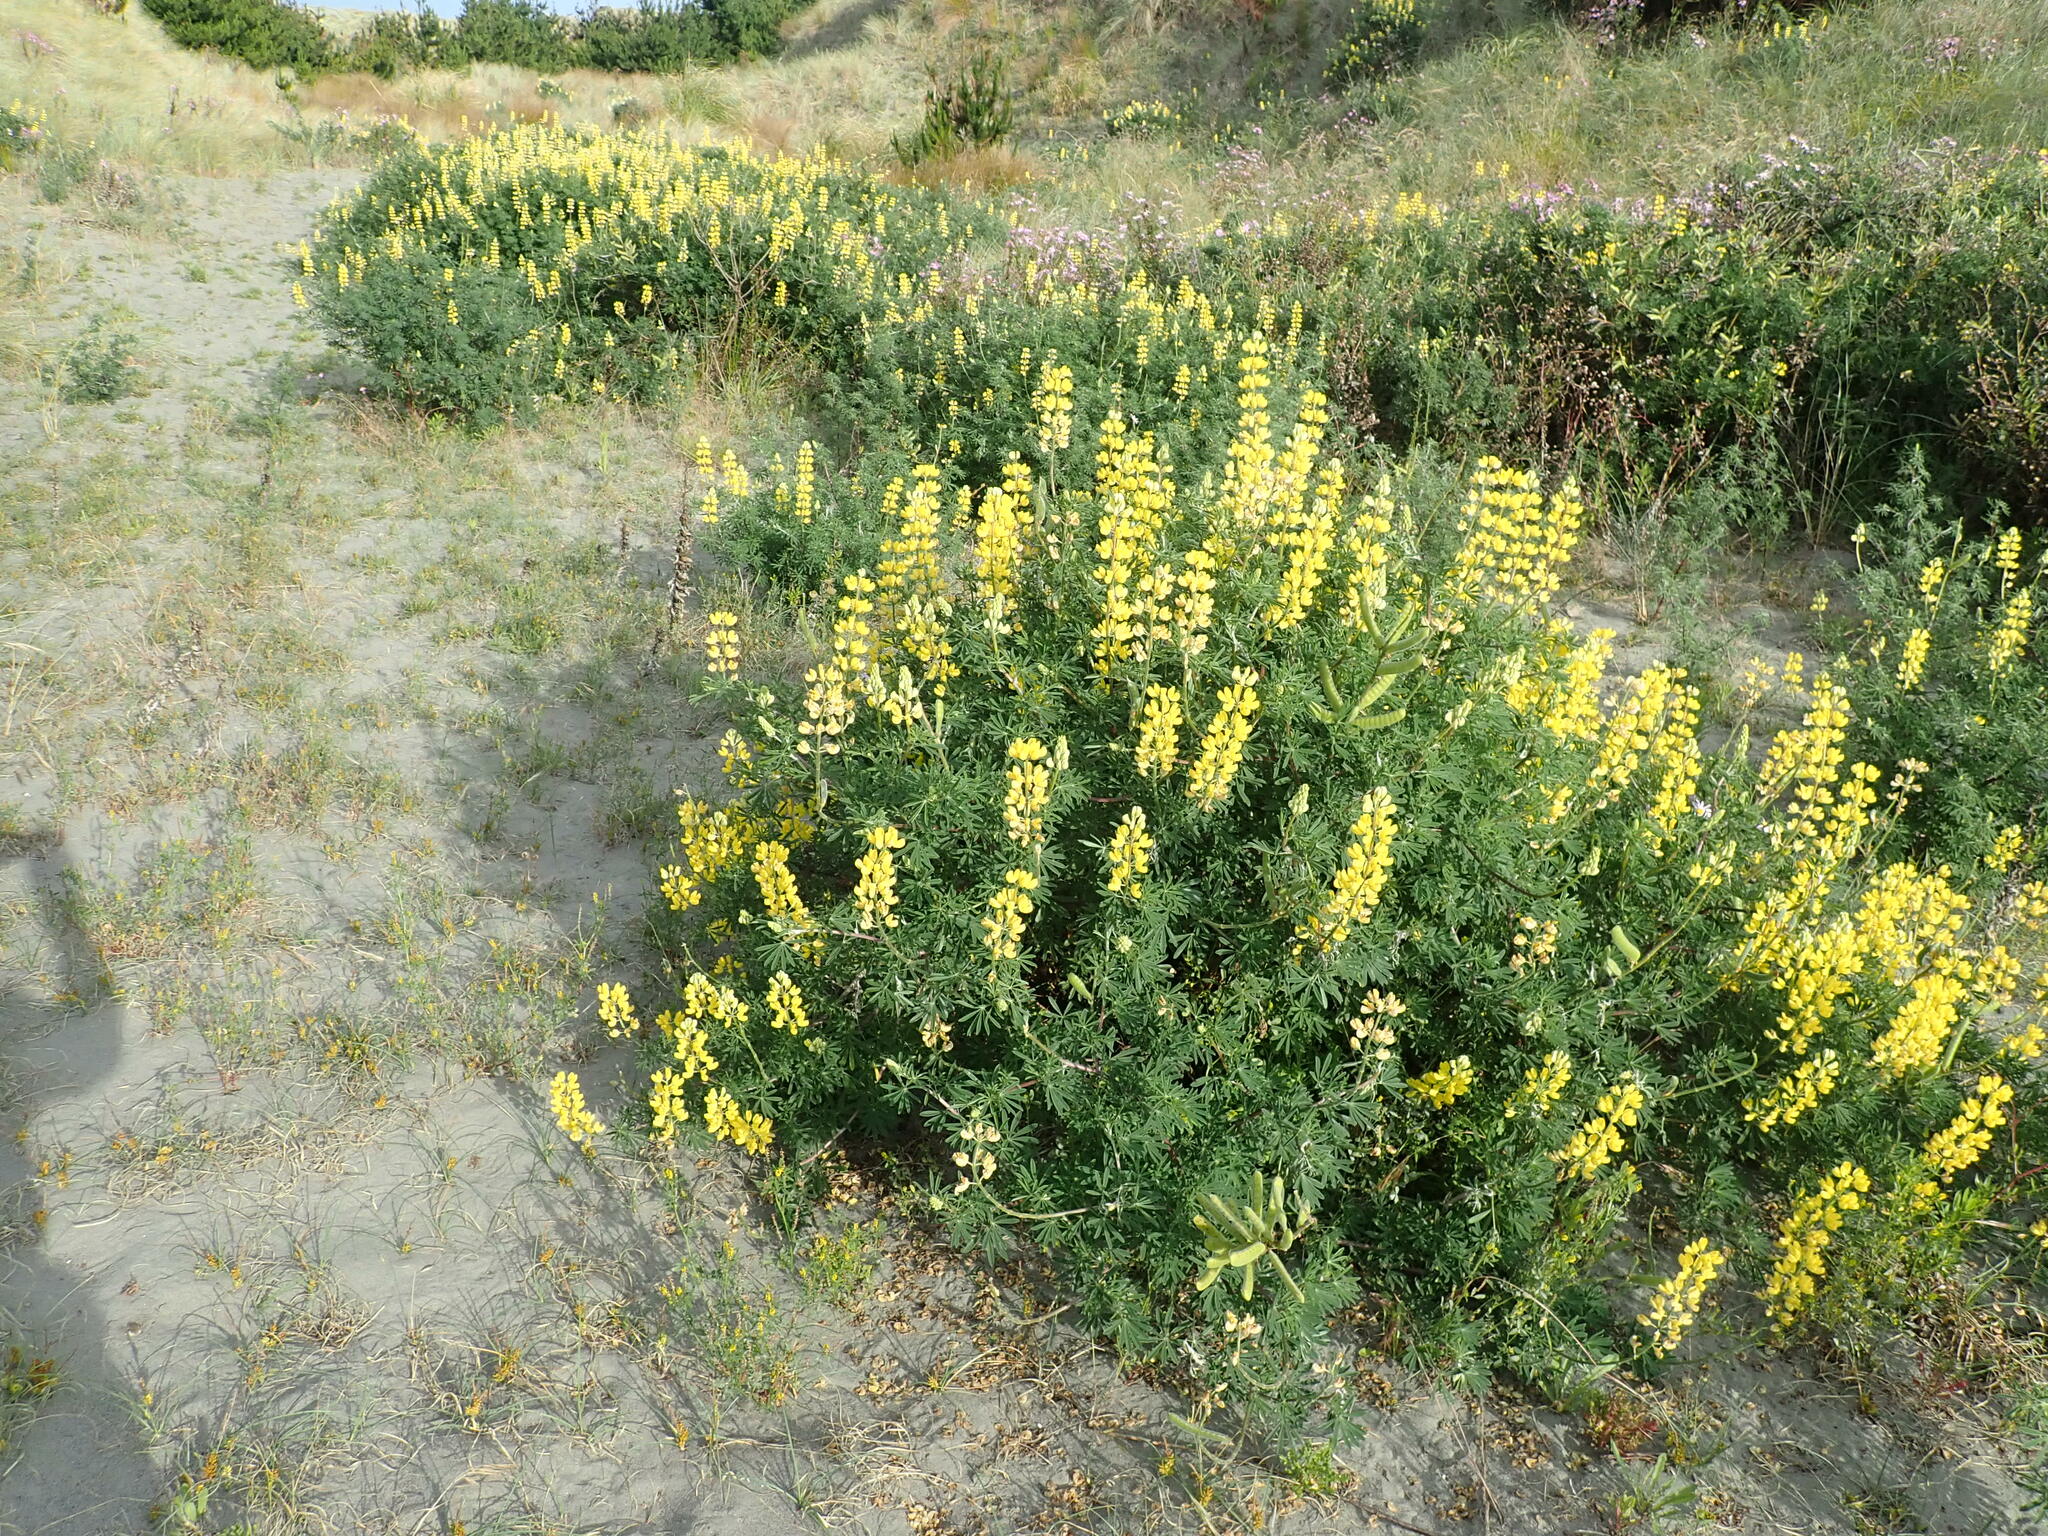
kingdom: Plantae
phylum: Tracheophyta
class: Magnoliopsida
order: Fabales
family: Fabaceae
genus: Lupinus
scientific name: Lupinus arboreus
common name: Yellow bush lupine
